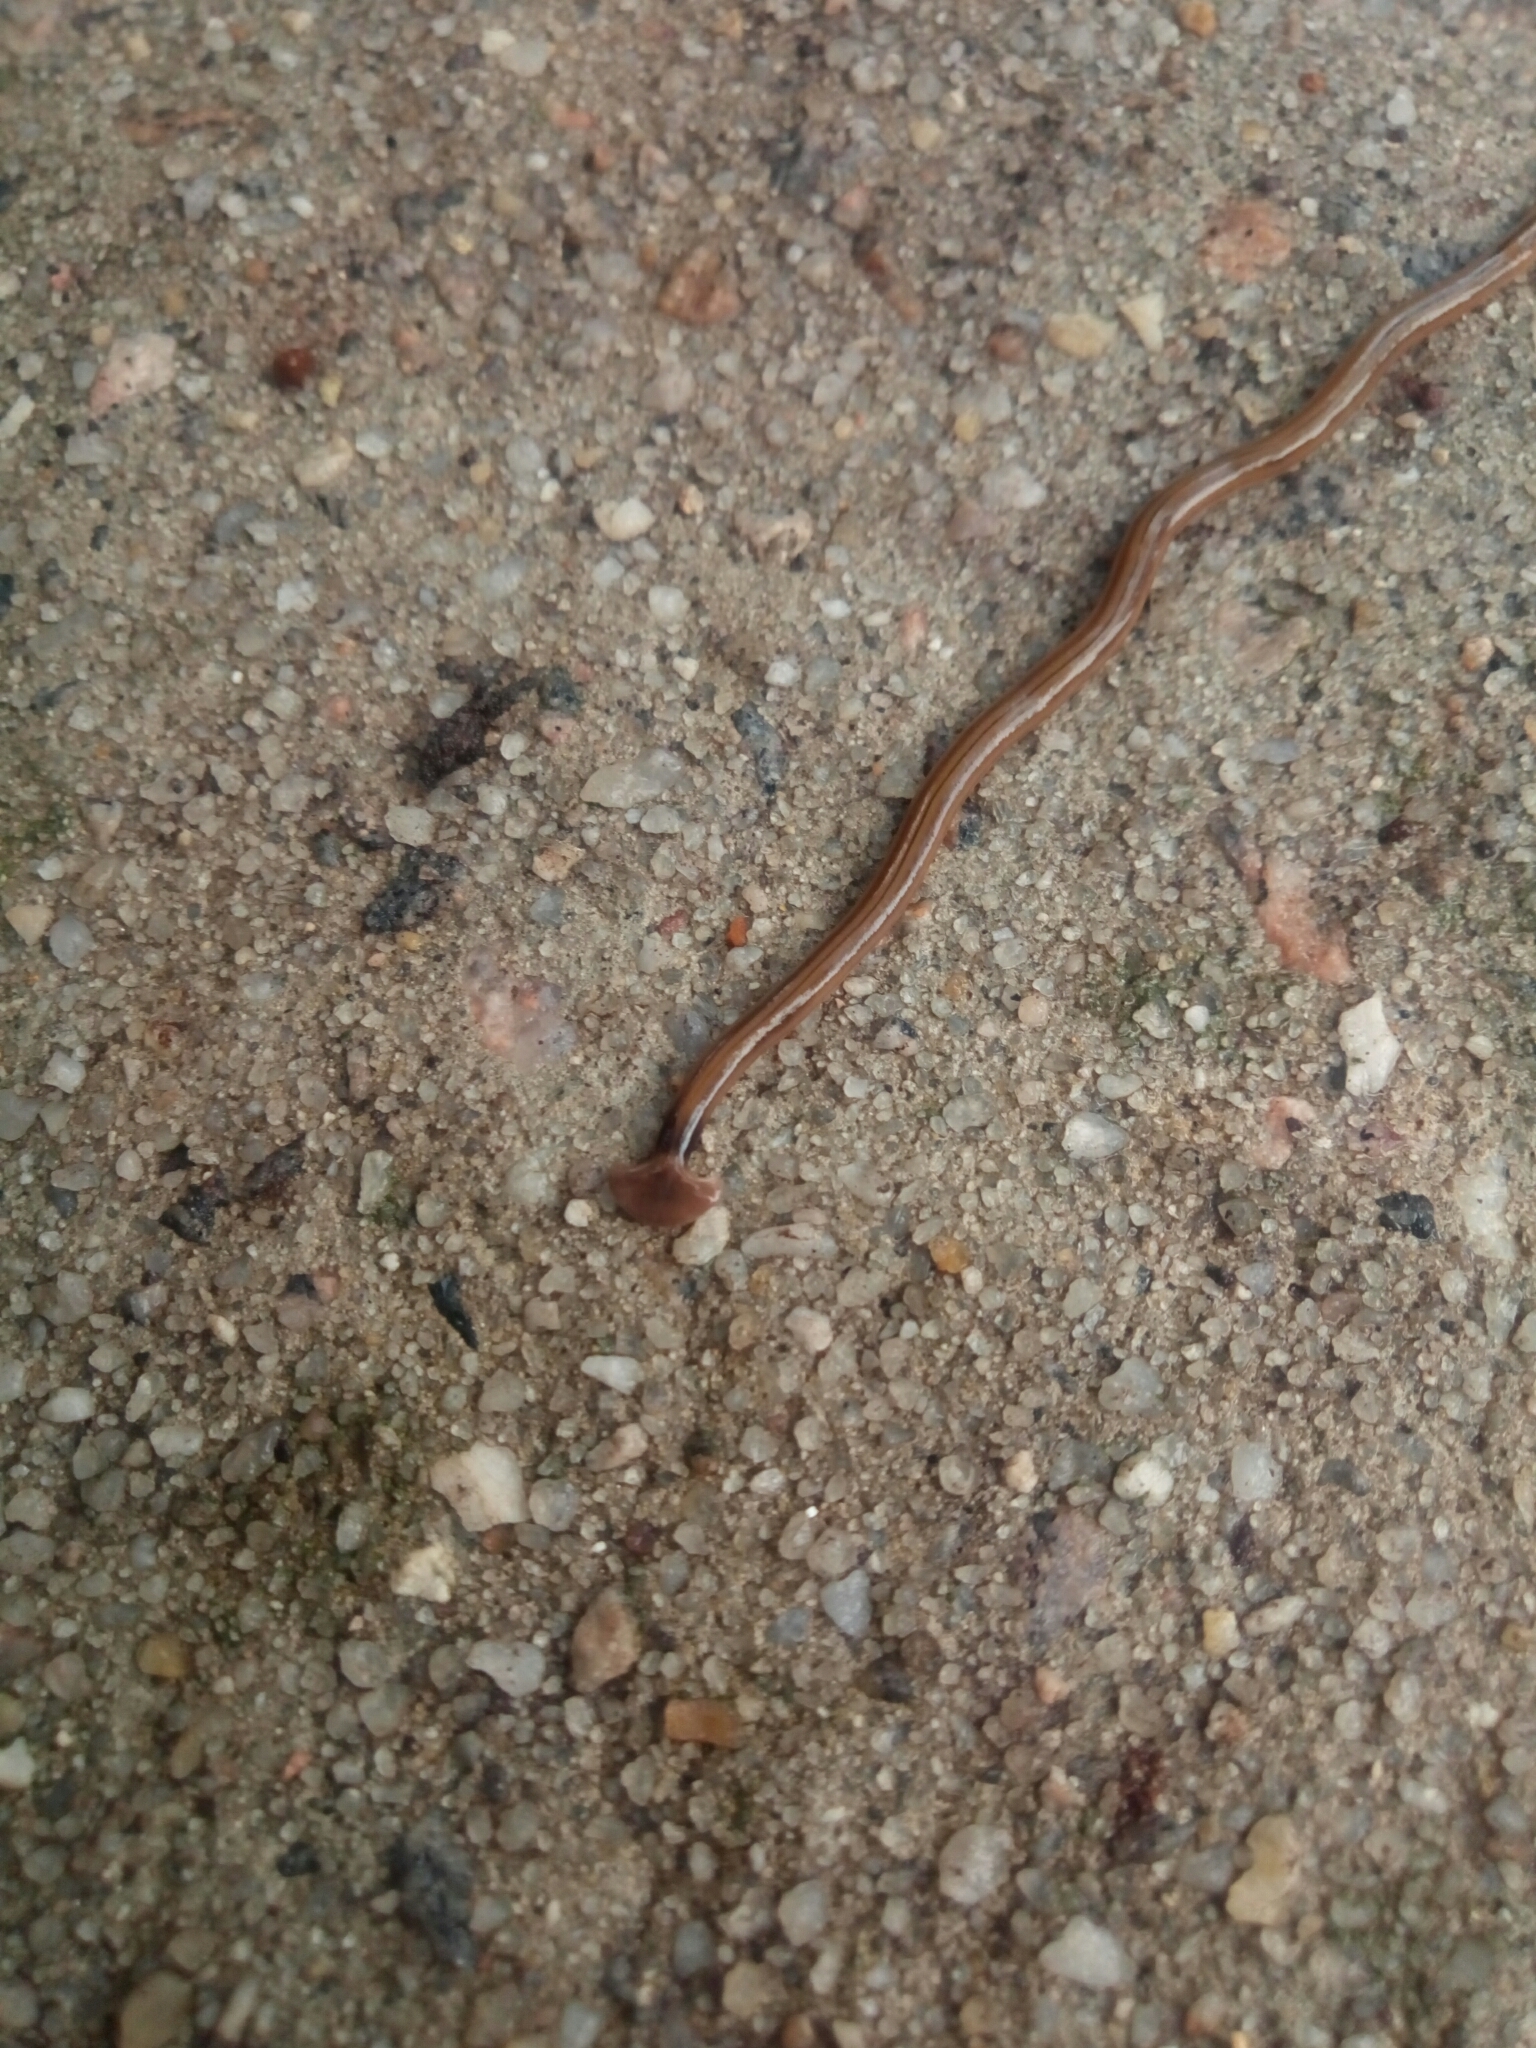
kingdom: Animalia
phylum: Platyhelminthes
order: Tricladida
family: Geoplanidae
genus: Bipalium
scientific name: Bipalium kewense
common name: Hammerhead flatworm
